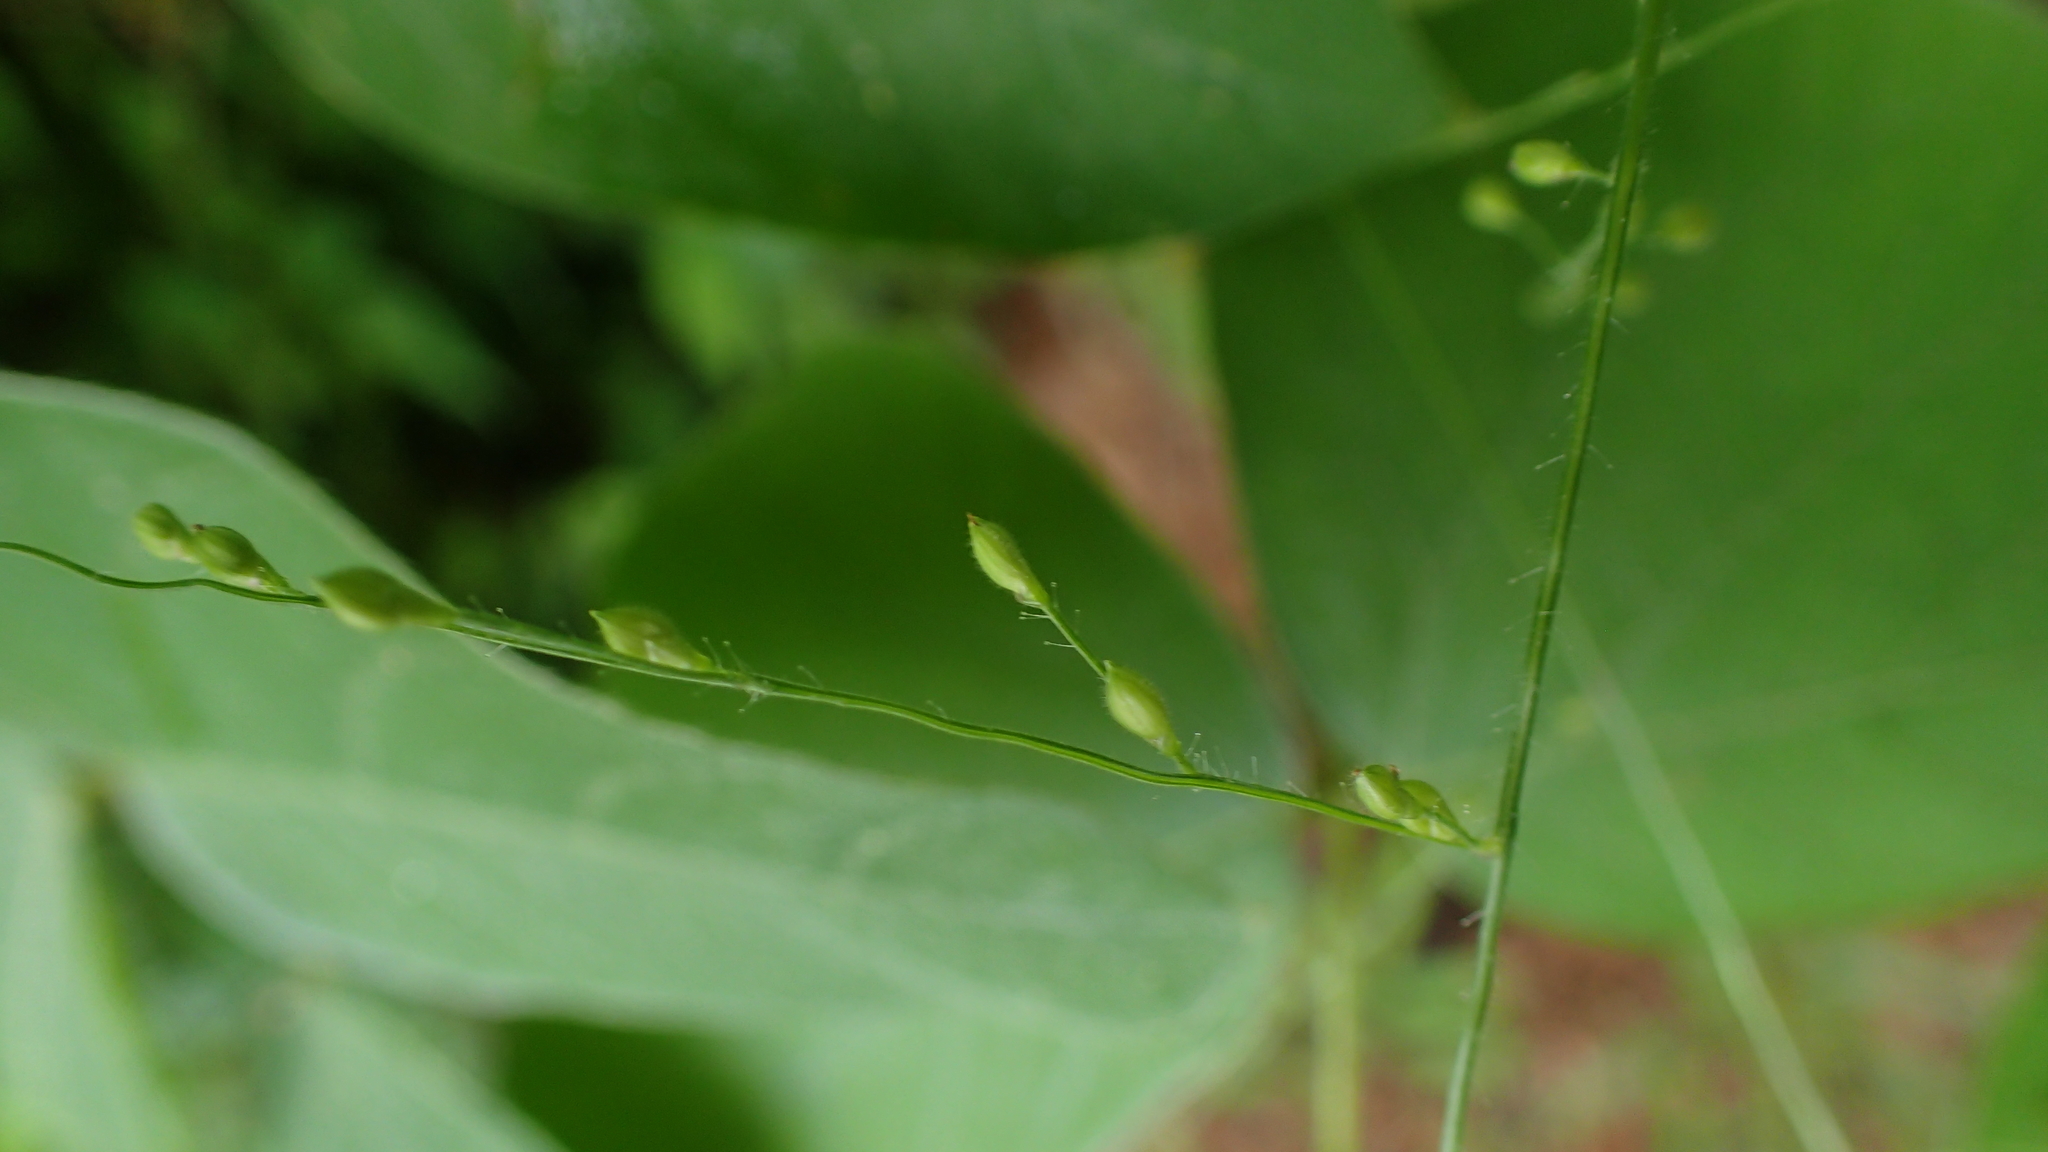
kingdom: Plantae
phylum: Tracheophyta
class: Liliopsida
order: Poales
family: Poaceae
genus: Urochloa
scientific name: Urochloa deflexa
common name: Guinea millet
